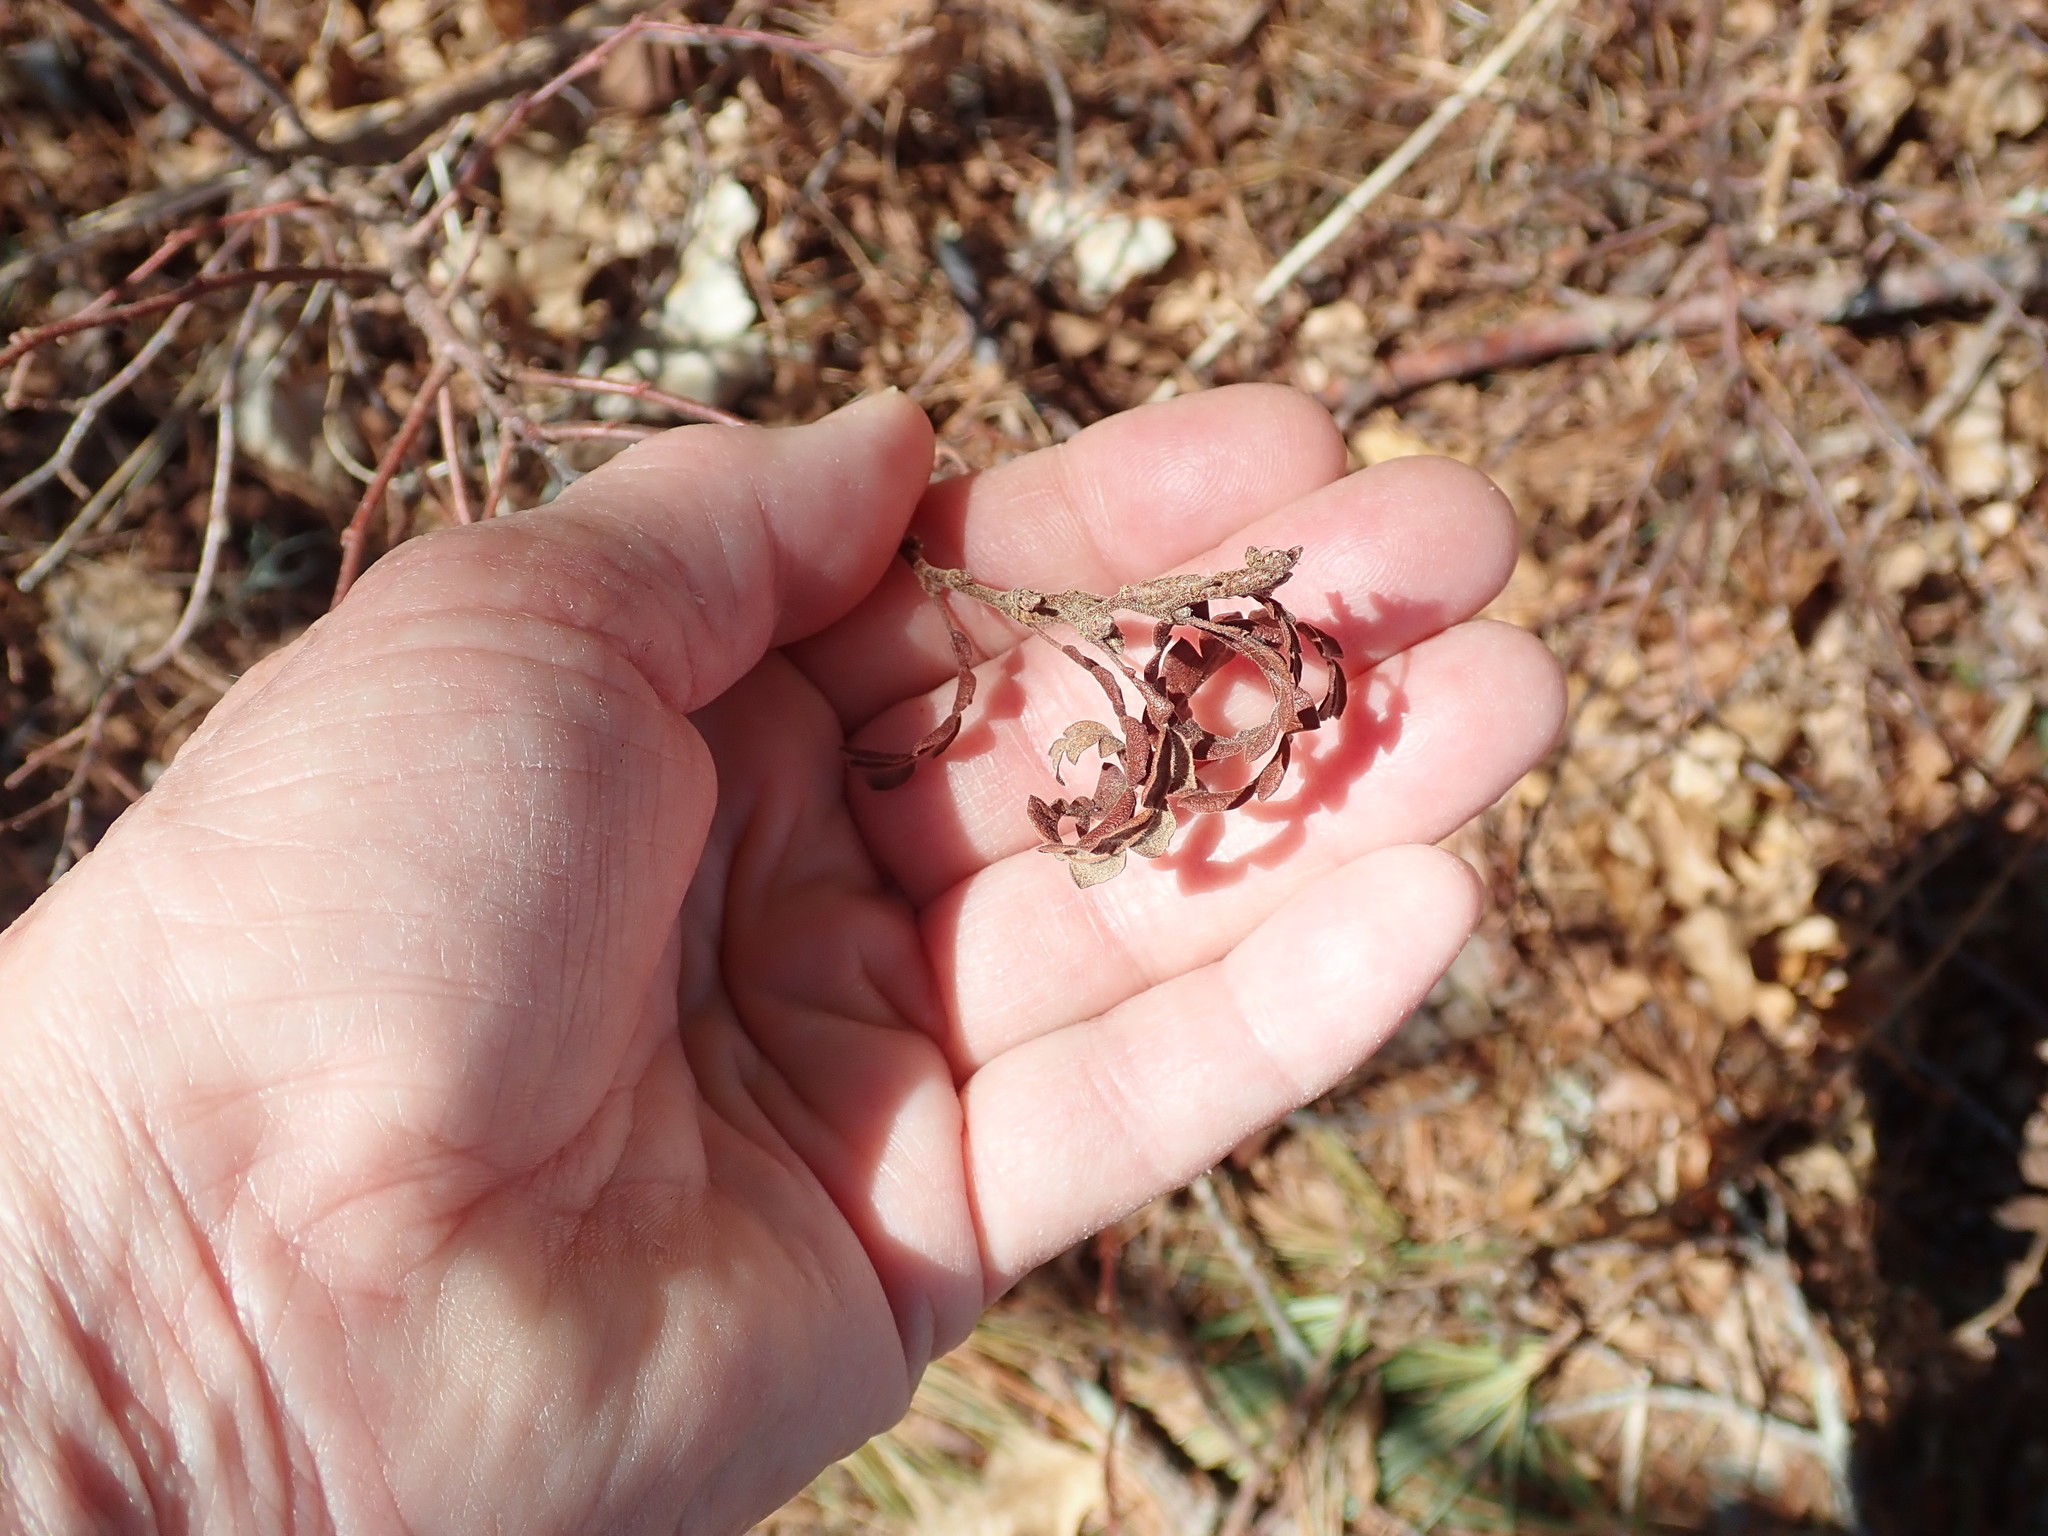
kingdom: Plantae
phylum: Tracheophyta
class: Magnoliopsida
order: Fagales
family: Myricaceae
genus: Comptonia
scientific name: Comptonia peregrina
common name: Sweet-fern
